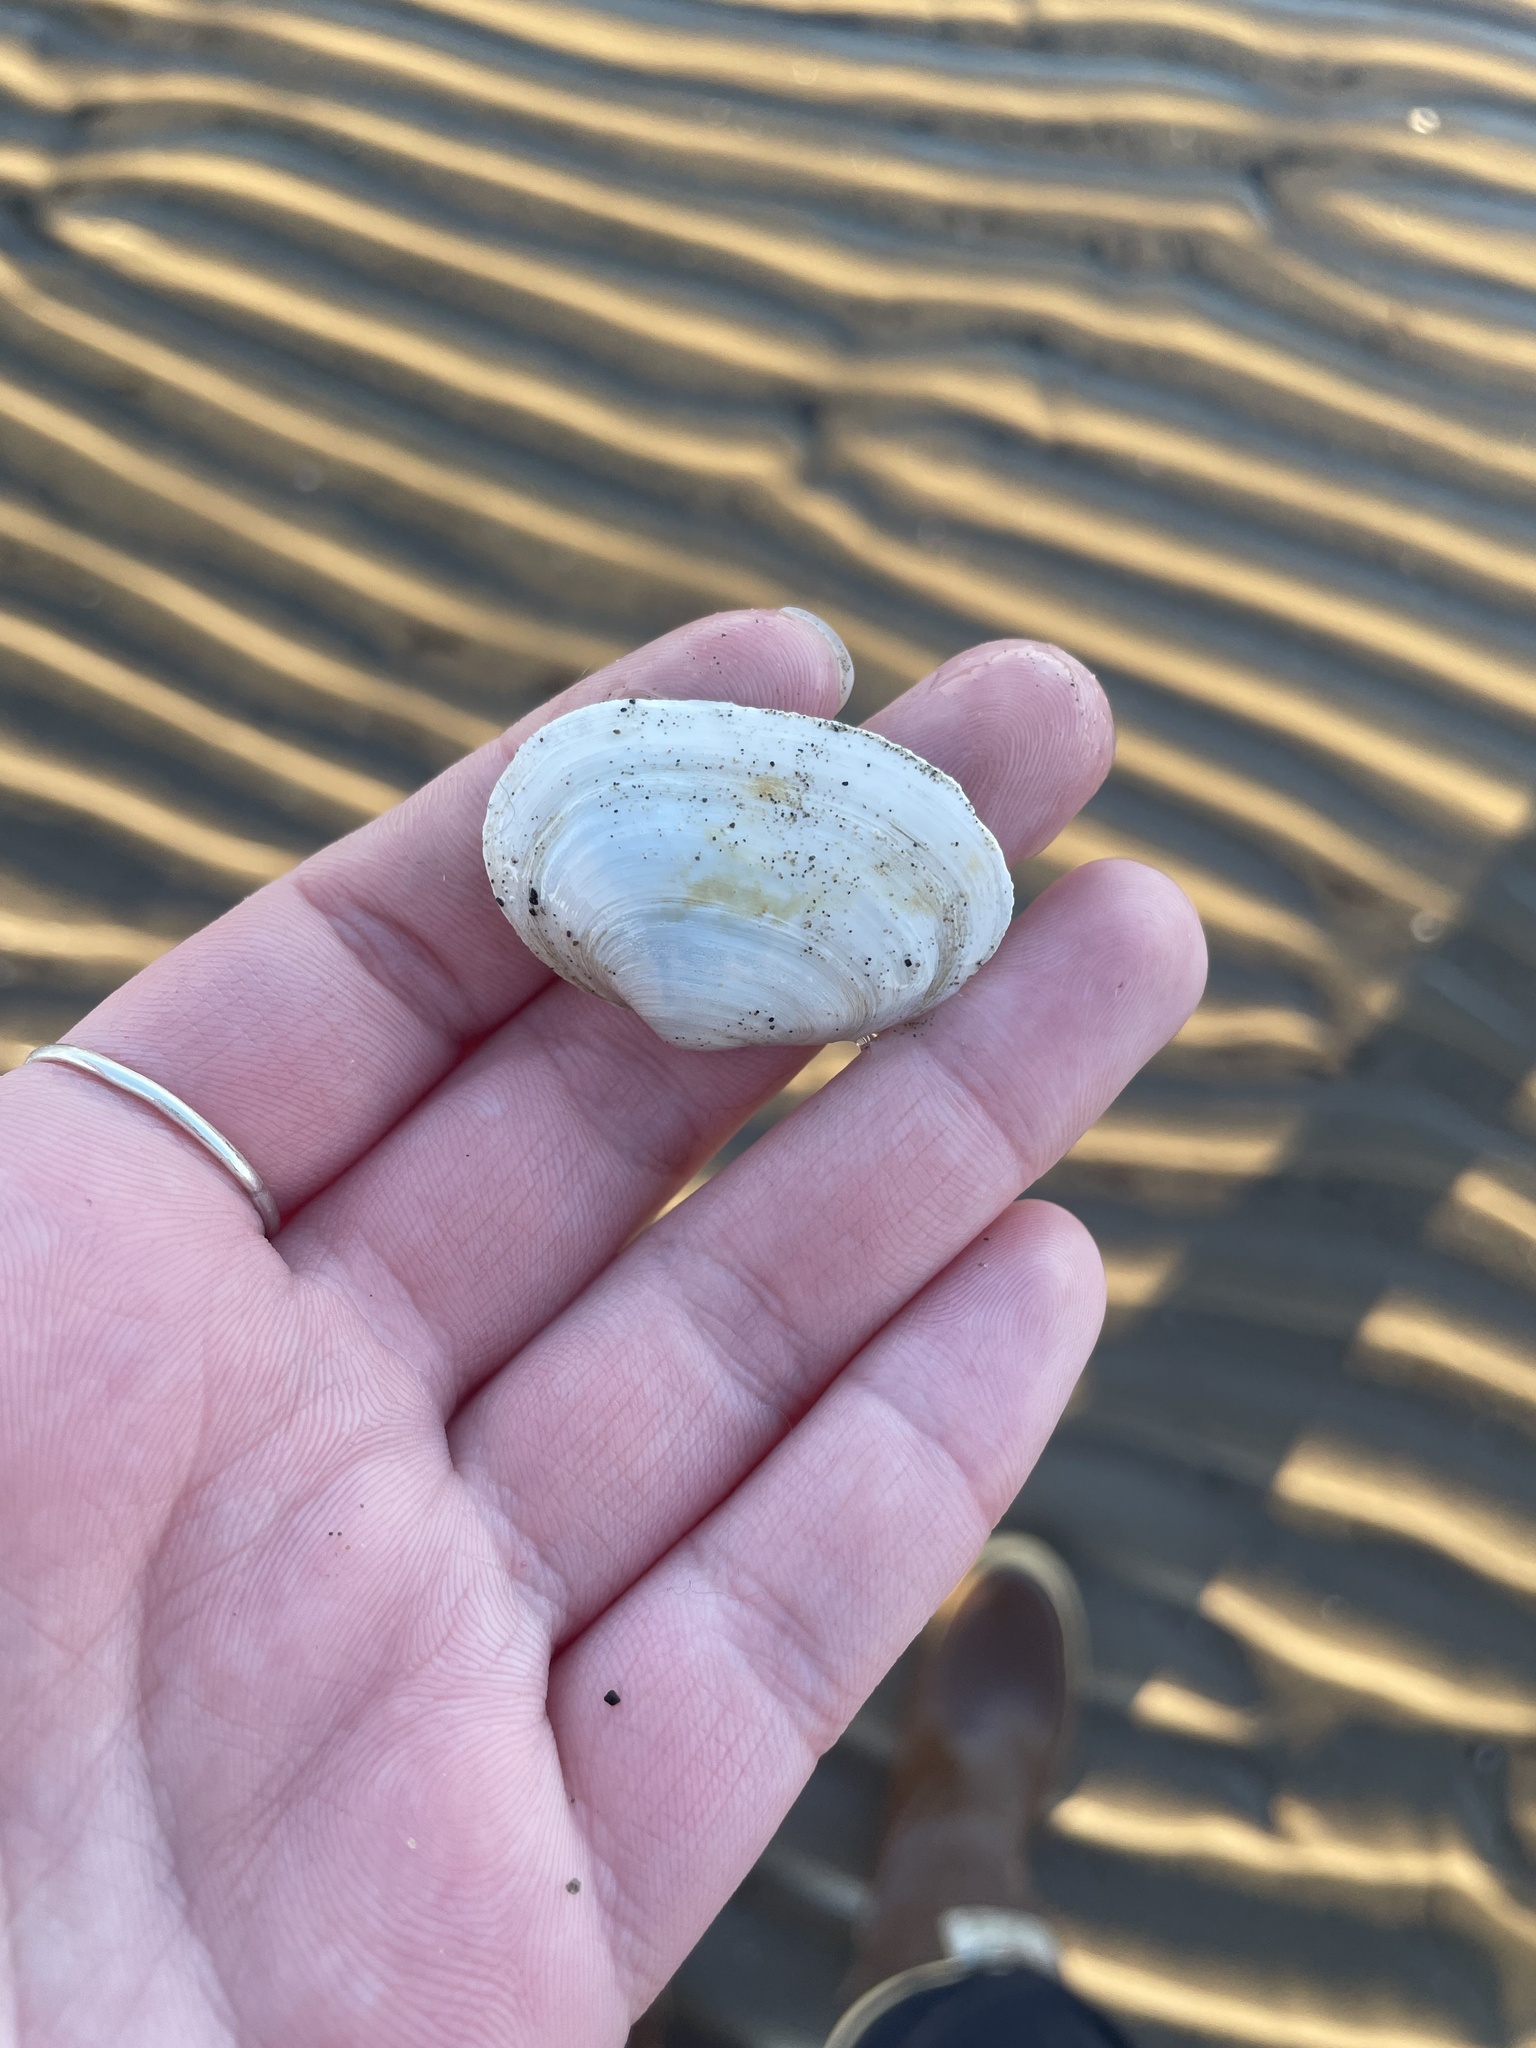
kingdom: Animalia
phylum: Mollusca
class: Bivalvia
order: Myida
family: Myidae
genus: Mya
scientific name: Mya arenaria
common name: Soft-shelled clam
